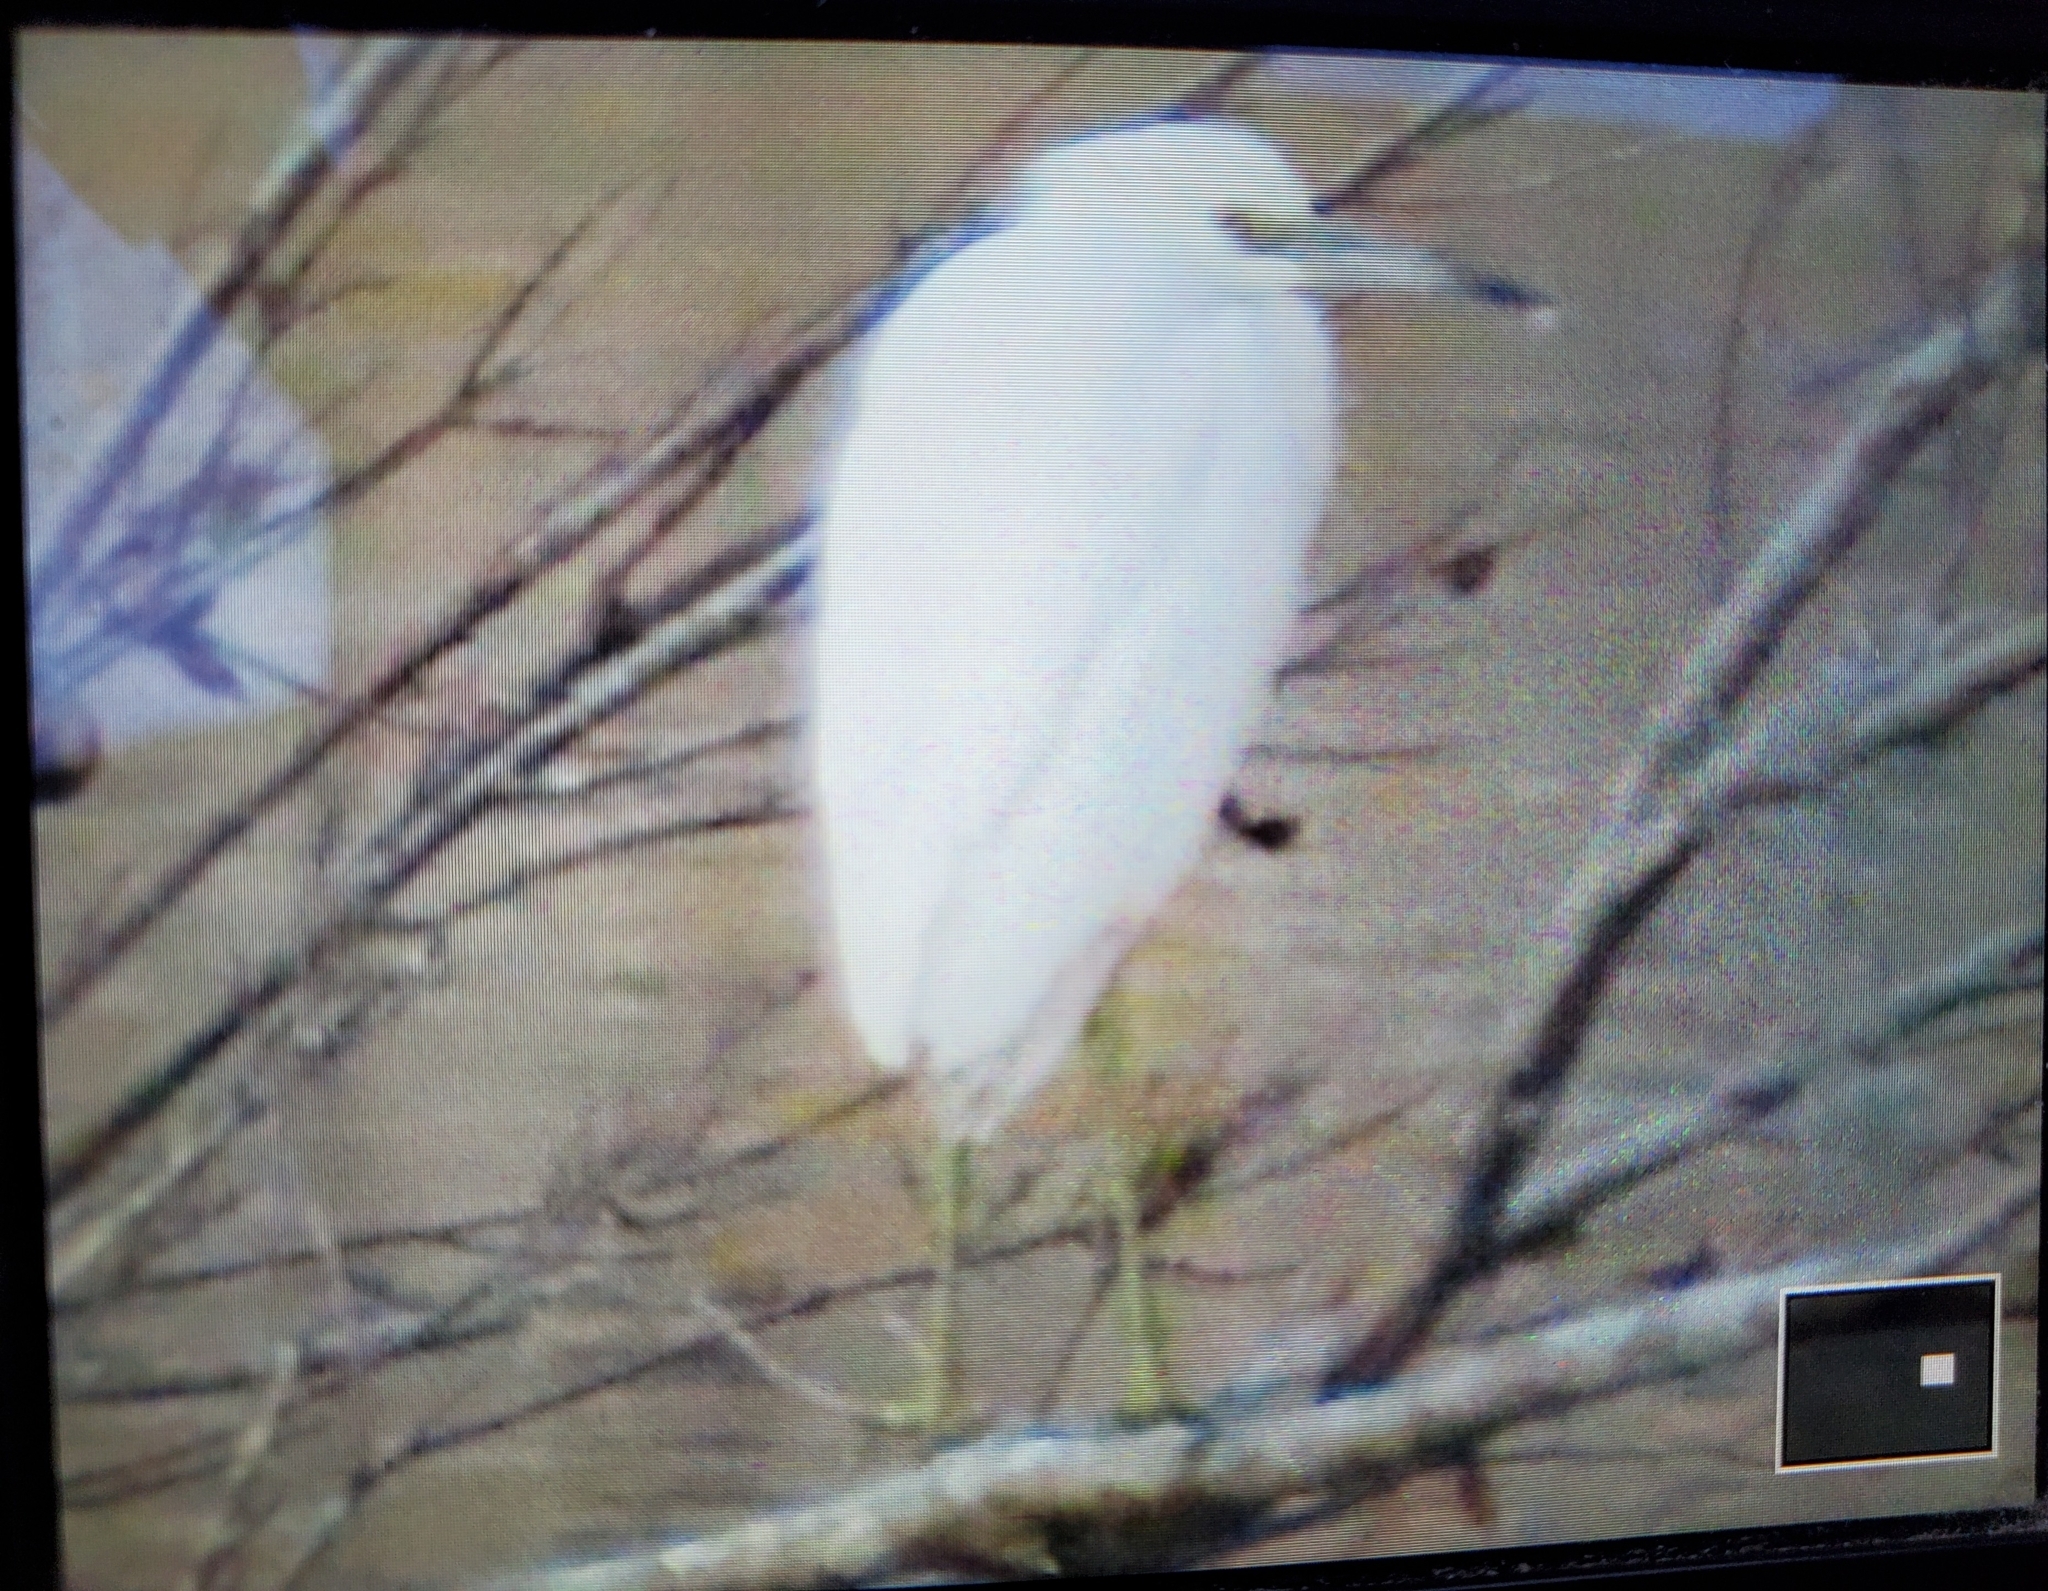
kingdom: Animalia
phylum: Chordata
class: Aves
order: Pelecaniformes
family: Ardeidae
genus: Egretta
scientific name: Egretta caerulea
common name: Little blue heron
